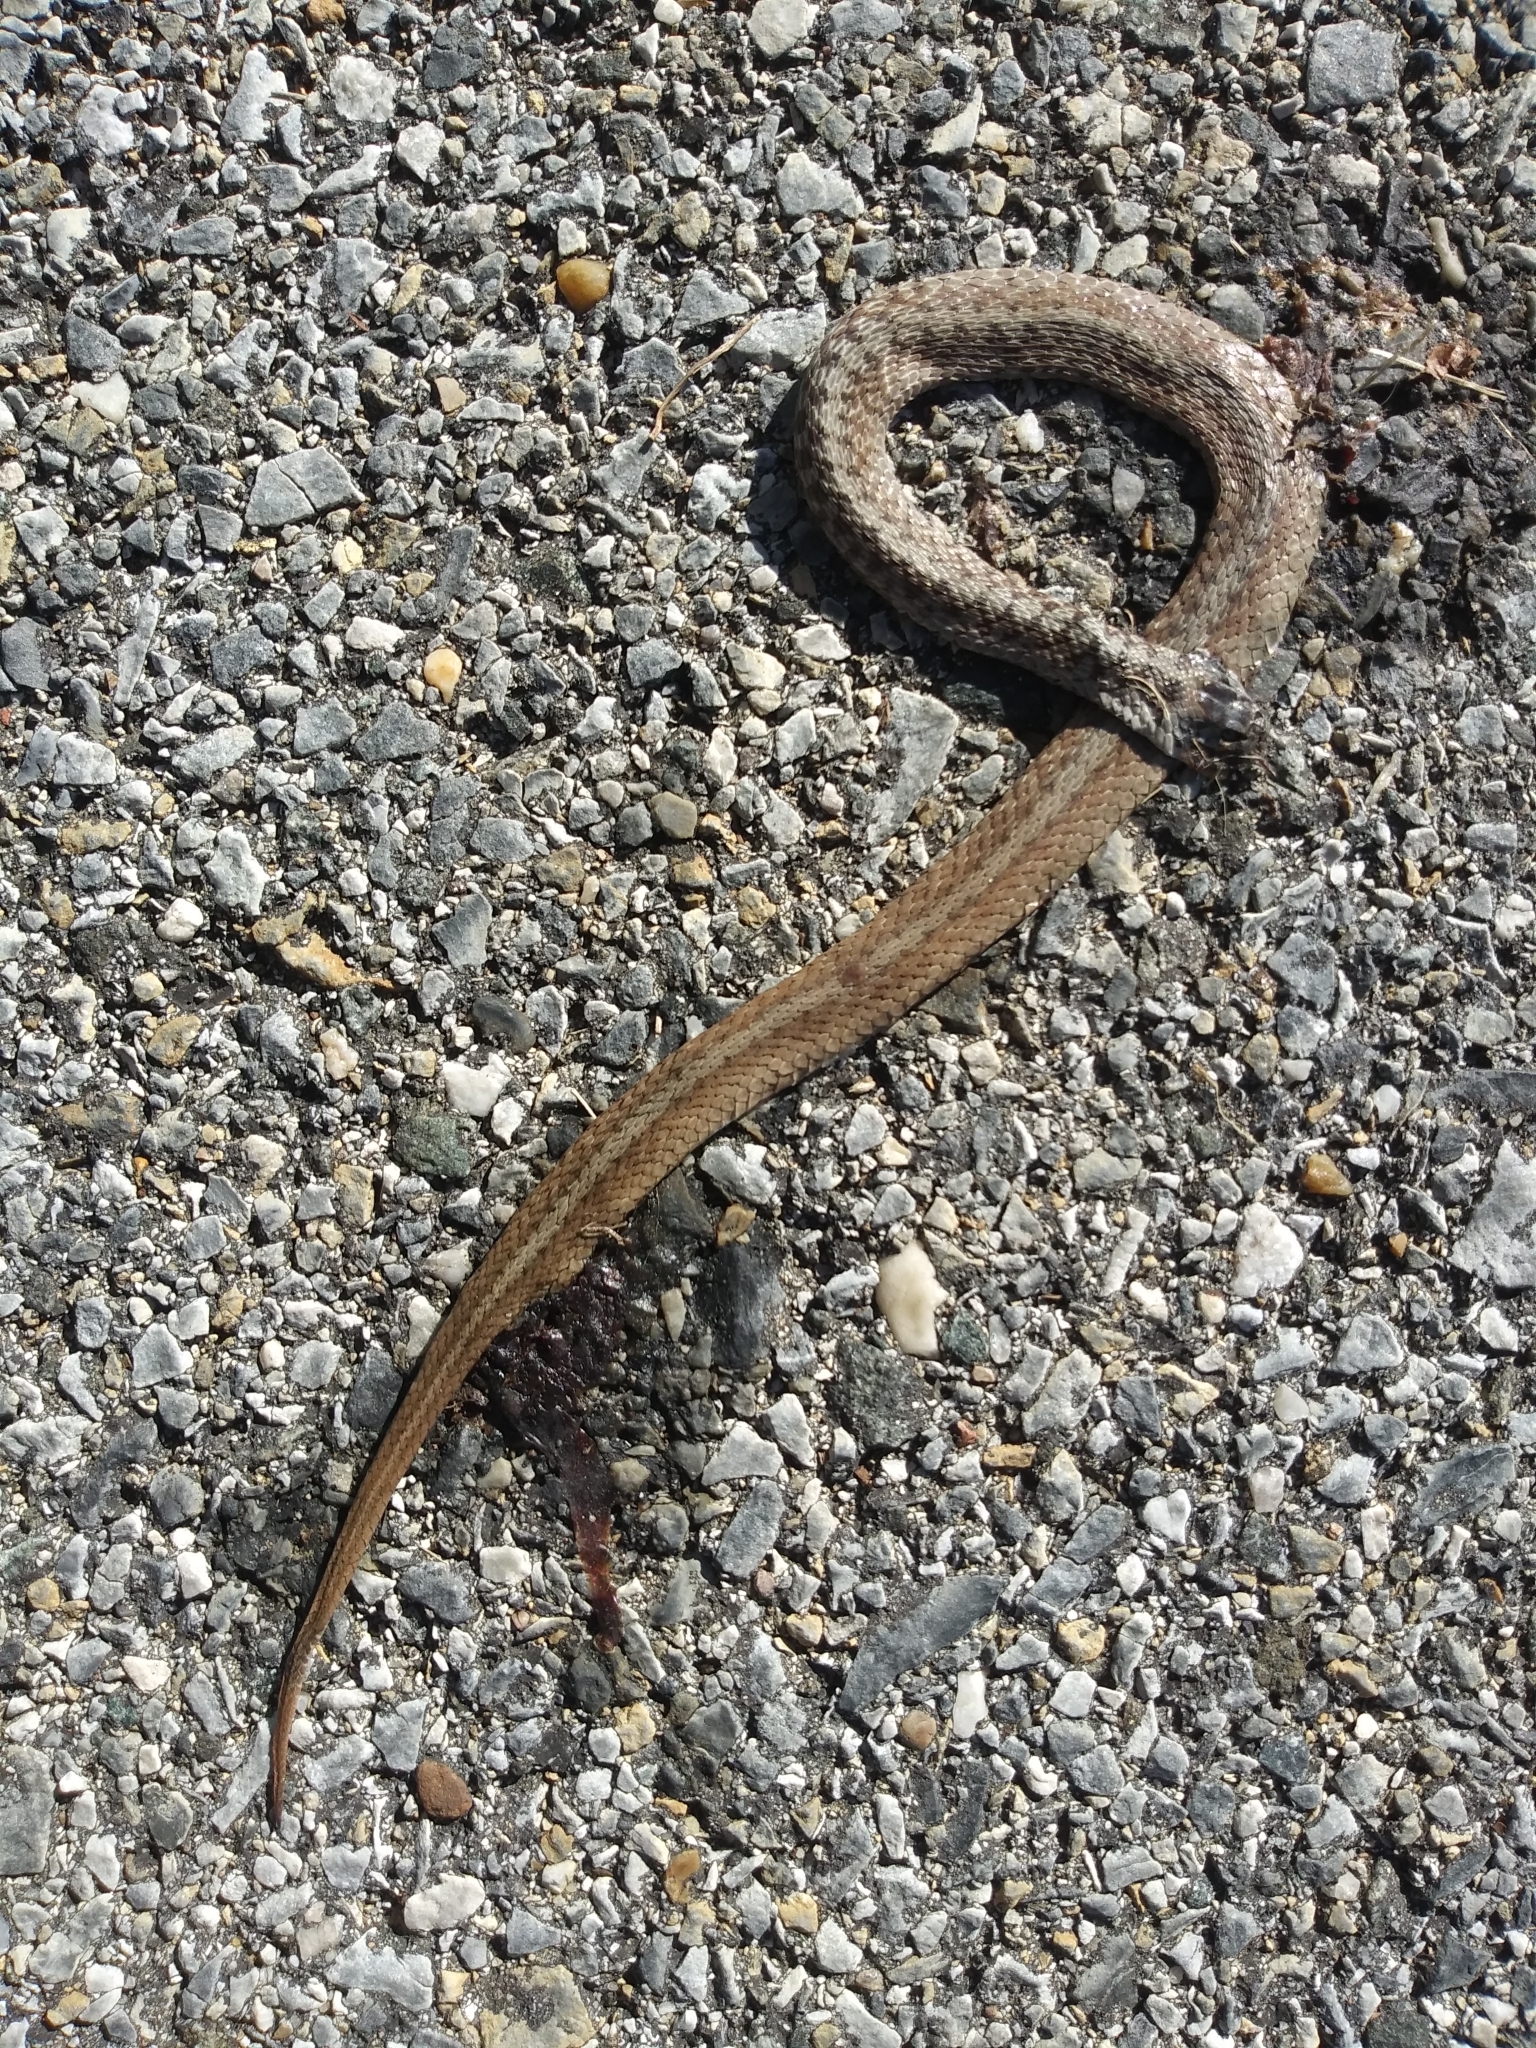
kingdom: Animalia
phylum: Chordata
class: Squamata
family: Colubridae
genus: Storeria
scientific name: Storeria dekayi
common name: (dekay’s) brown snake
